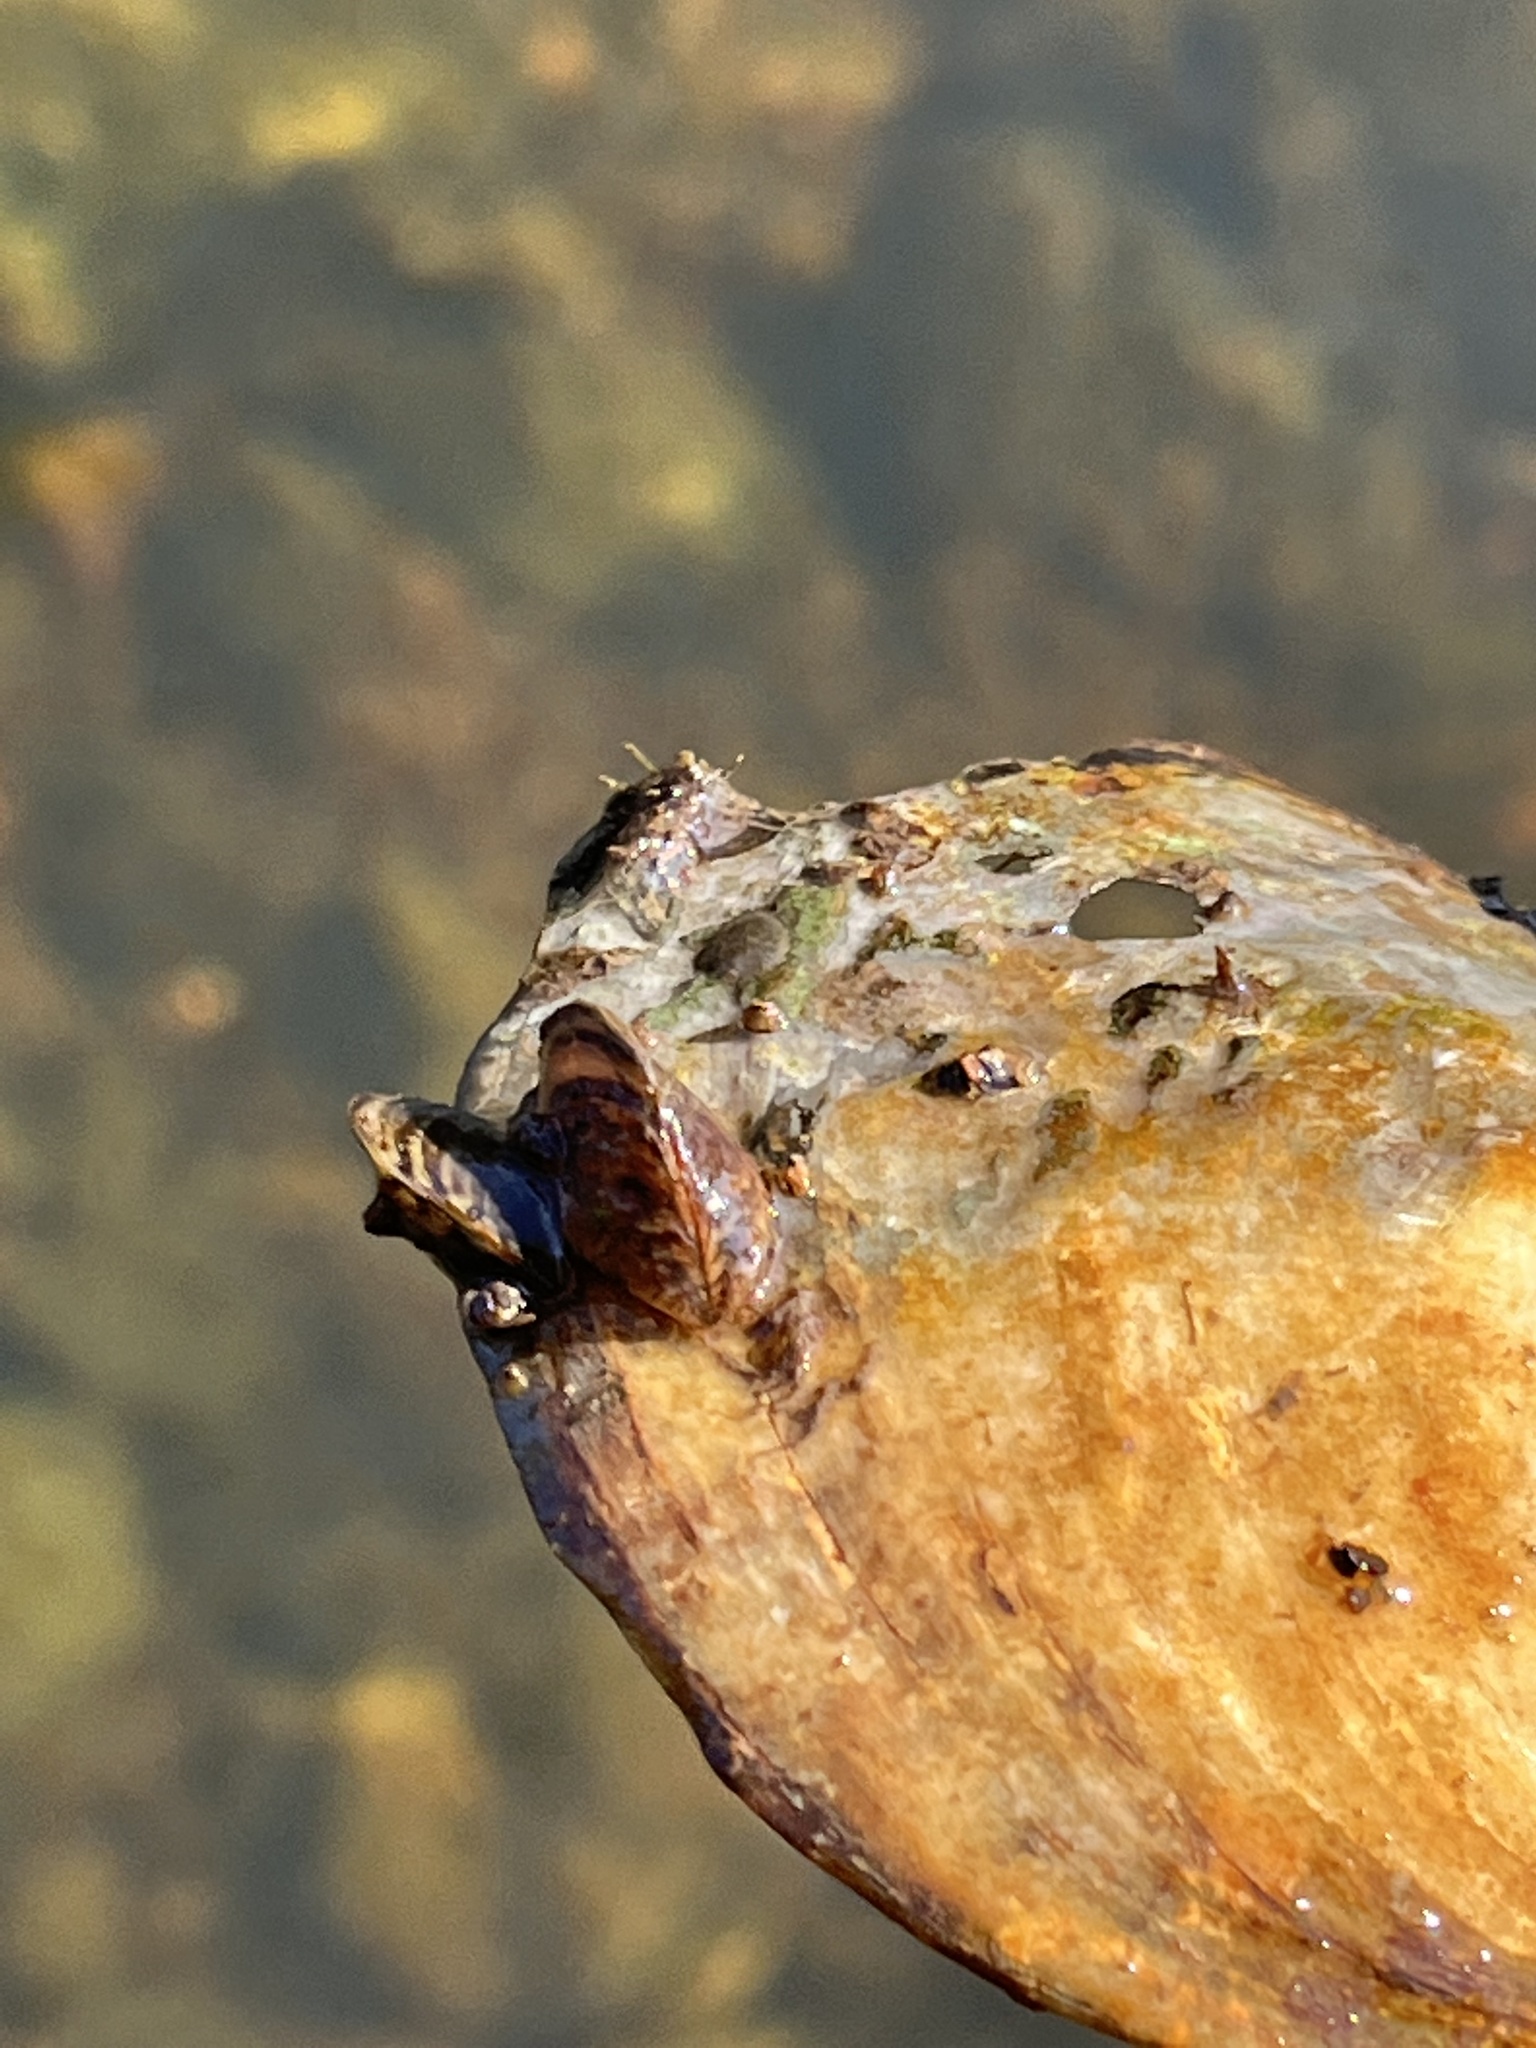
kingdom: Animalia
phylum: Mollusca
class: Bivalvia
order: Myida
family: Dreissenidae
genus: Dreissena
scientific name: Dreissena polymorpha
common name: Zebra mussel
